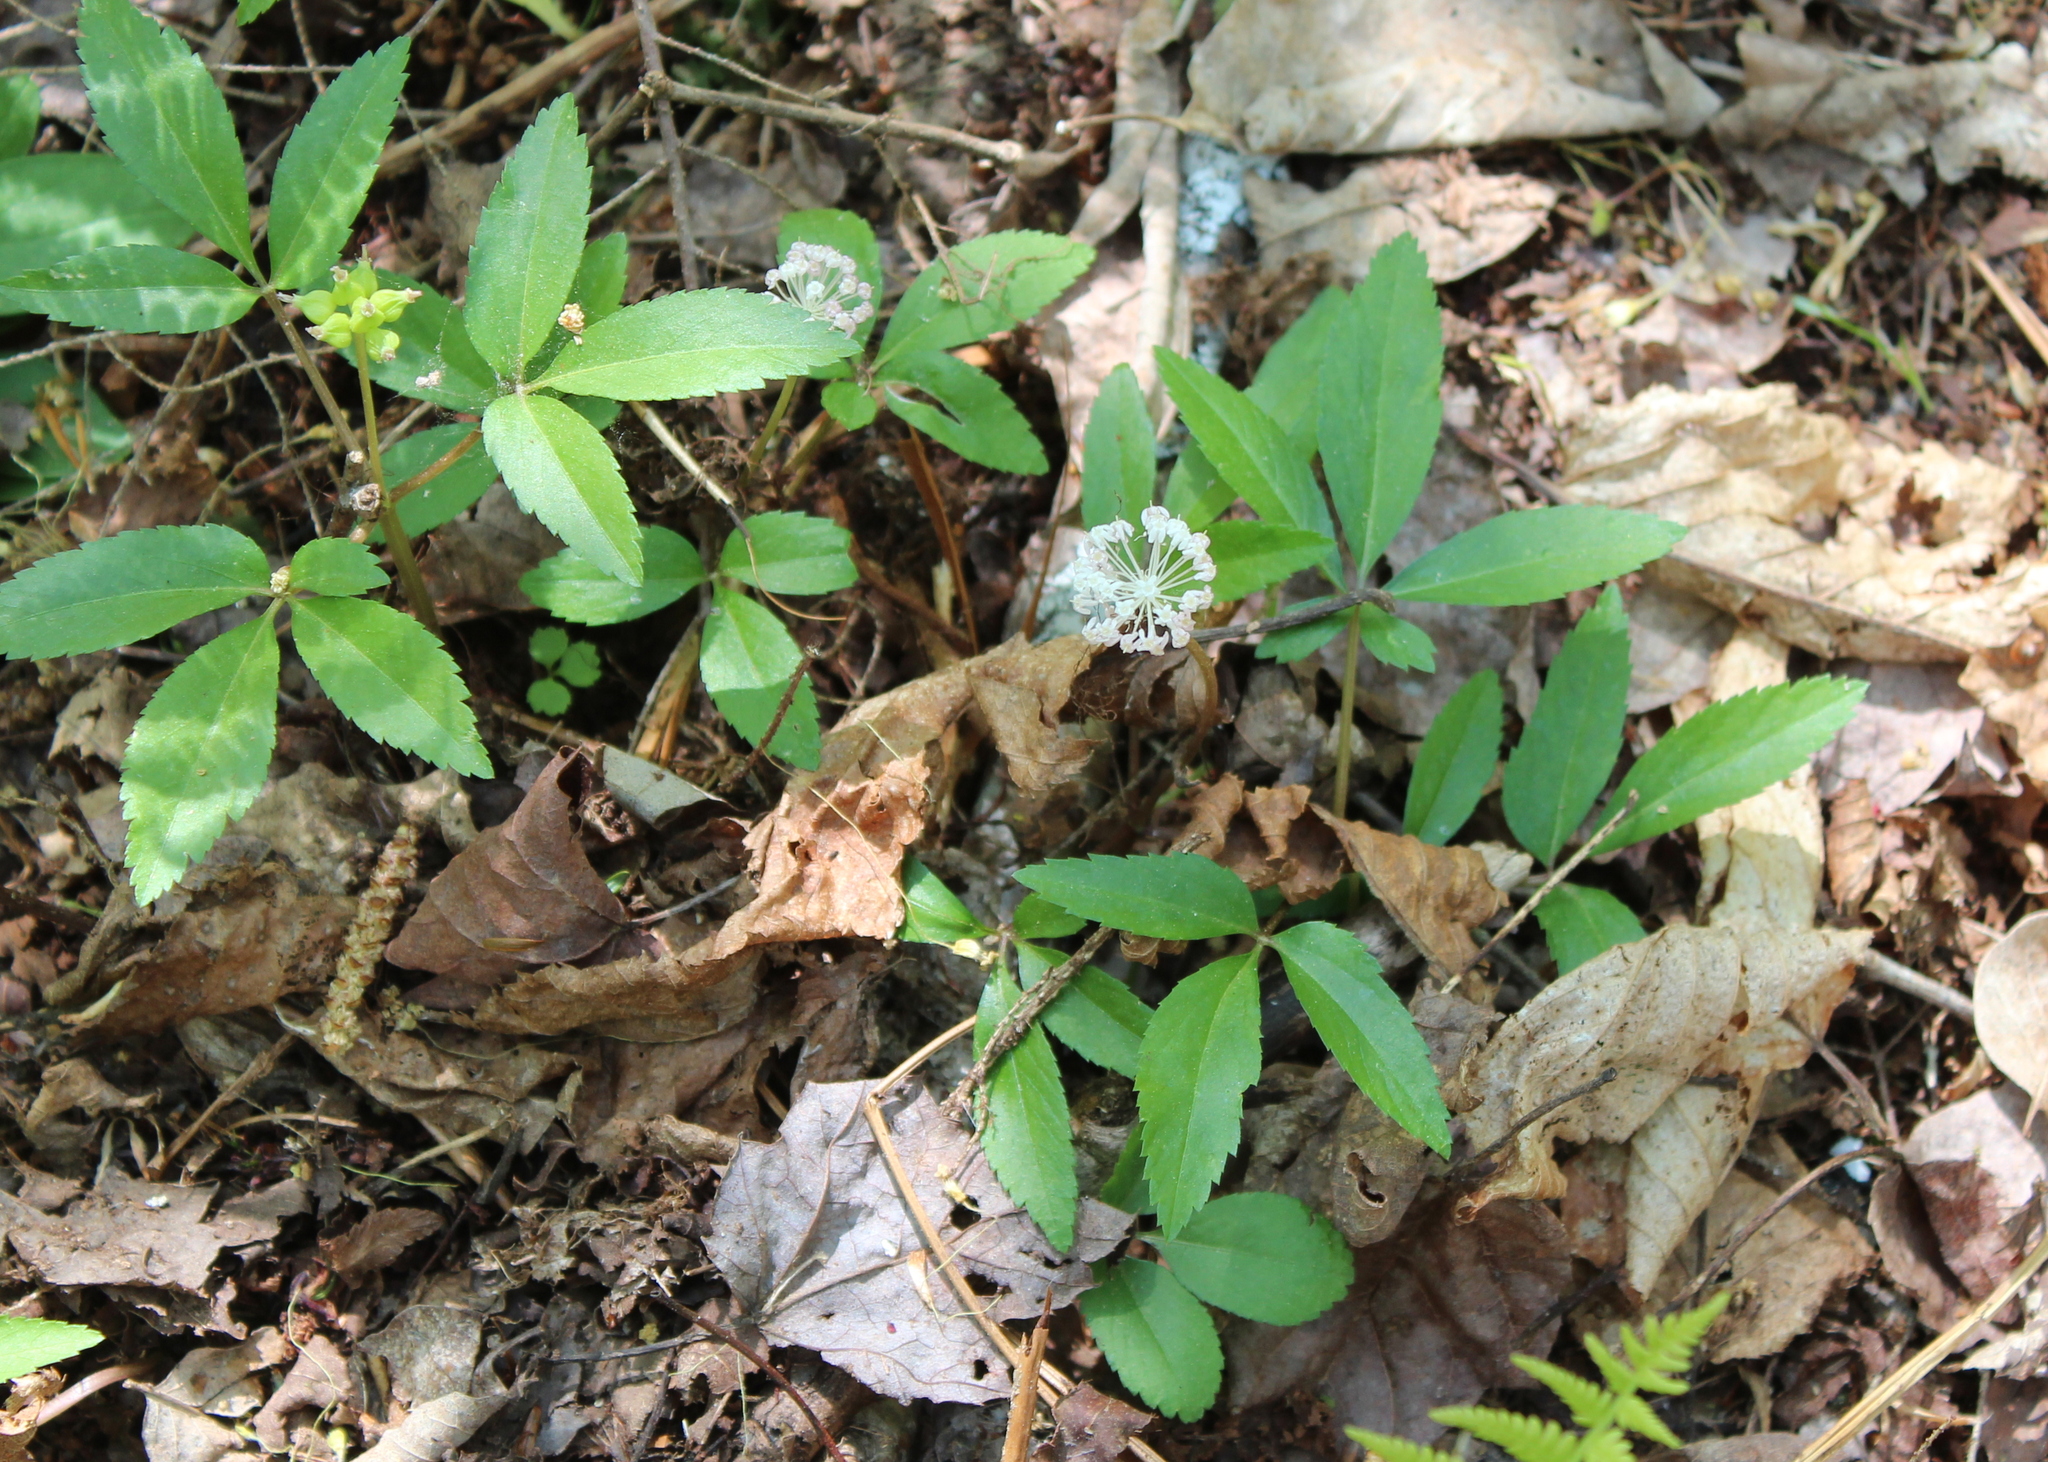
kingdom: Plantae
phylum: Tracheophyta
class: Magnoliopsida
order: Apiales
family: Araliaceae
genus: Panax
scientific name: Panax trifolius
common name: Dwarf ginseng
